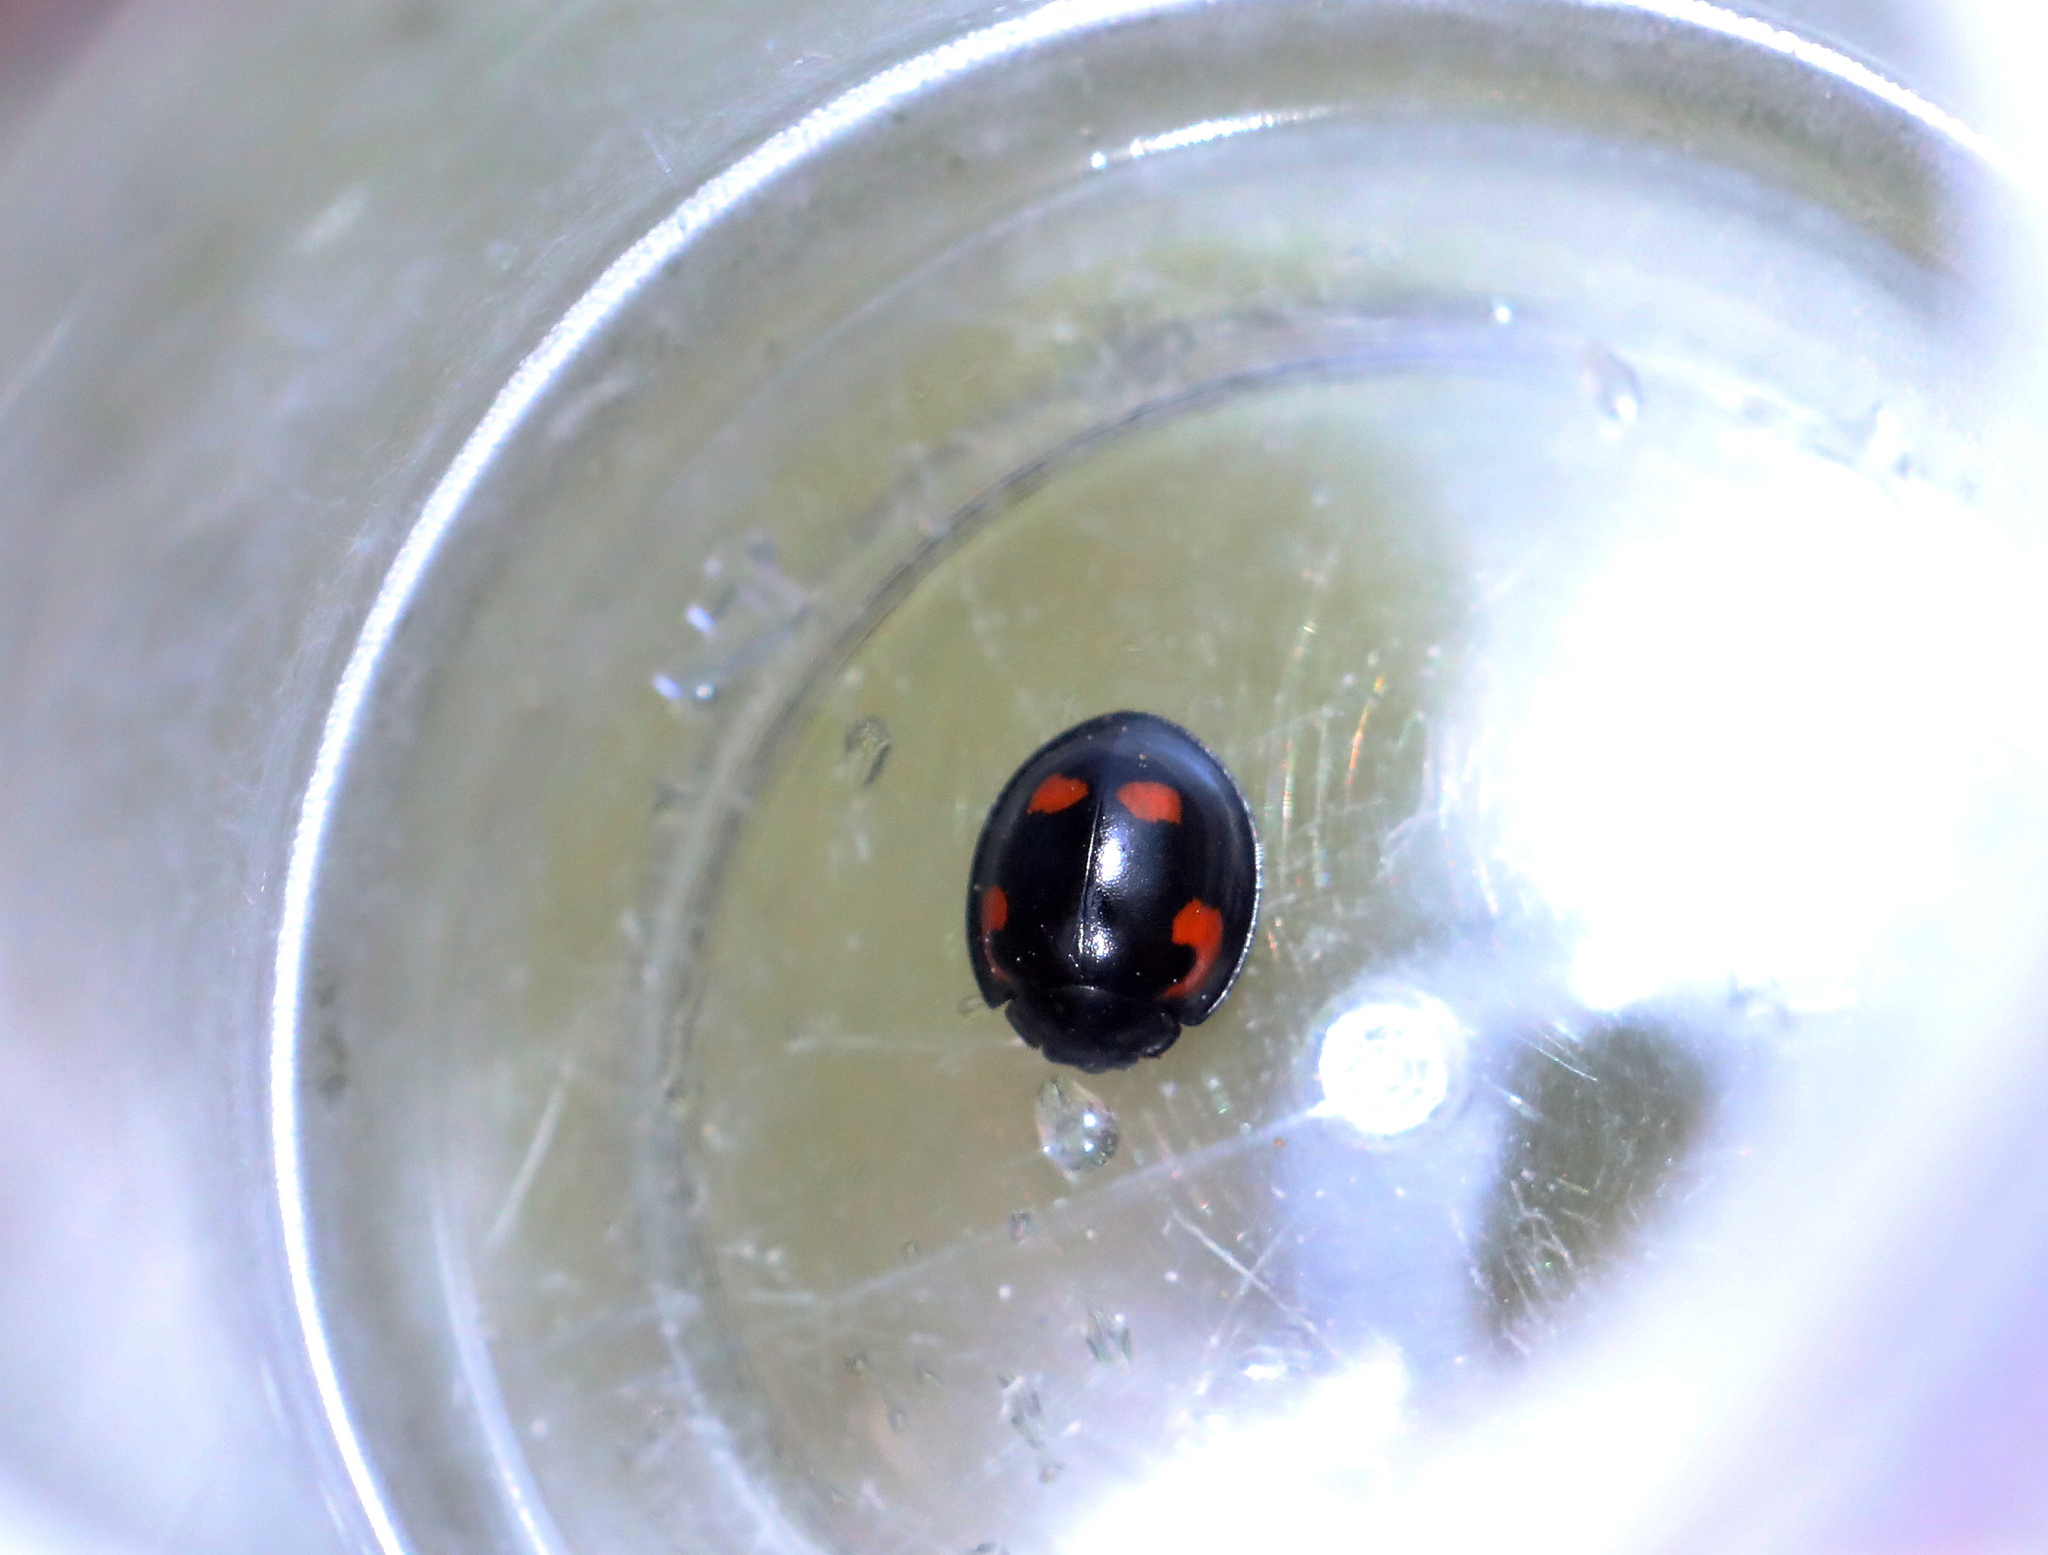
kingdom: Animalia
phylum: Arthropoda
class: Insecta
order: Coleoptera
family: Coccinellidae
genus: Brumus
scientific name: Brumus quadripustulatus
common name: Ladybird beetle
